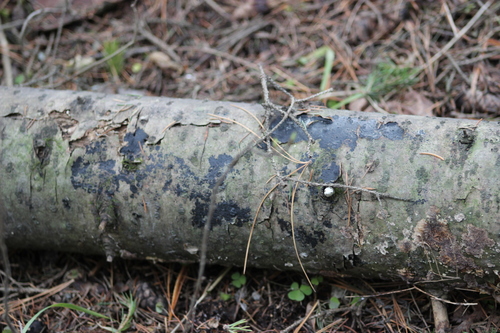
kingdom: Fungi
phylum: Basidiomycota
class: Agaricomycetes
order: Auriculariales
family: Auriculariaceae
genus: Exidia
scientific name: Exidia
